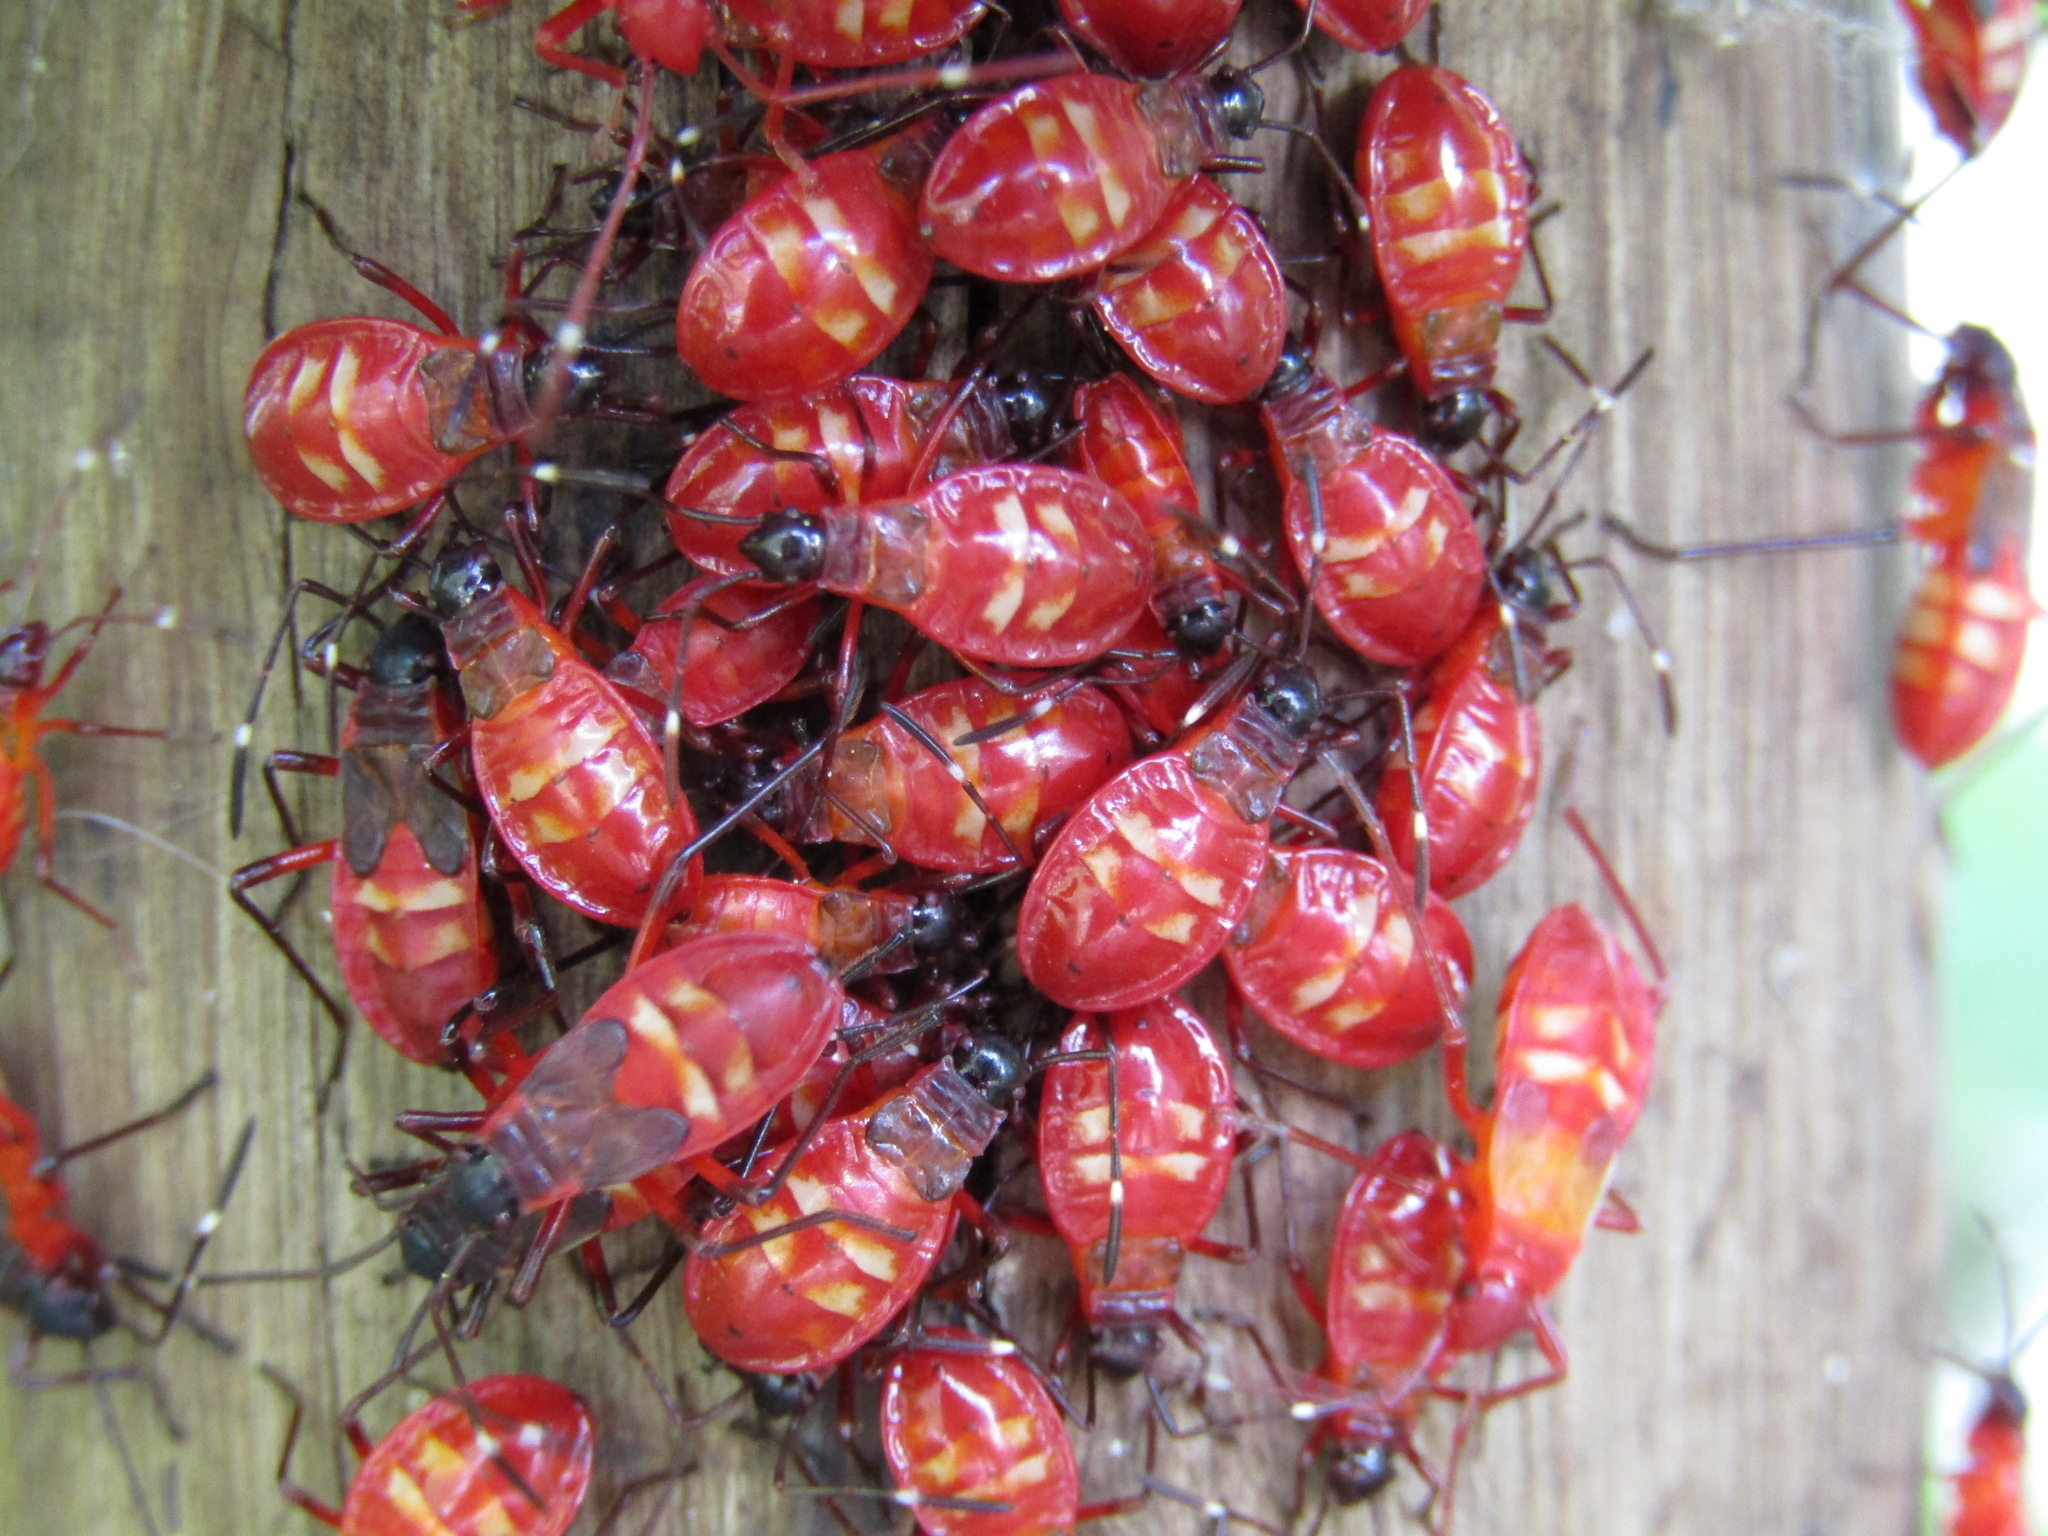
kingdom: Animalia
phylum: Arthropoda
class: Insecta
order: Hemiptera
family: Pyrrhocoridae
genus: Dysdercus
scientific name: Dysdercus albofasciatus
